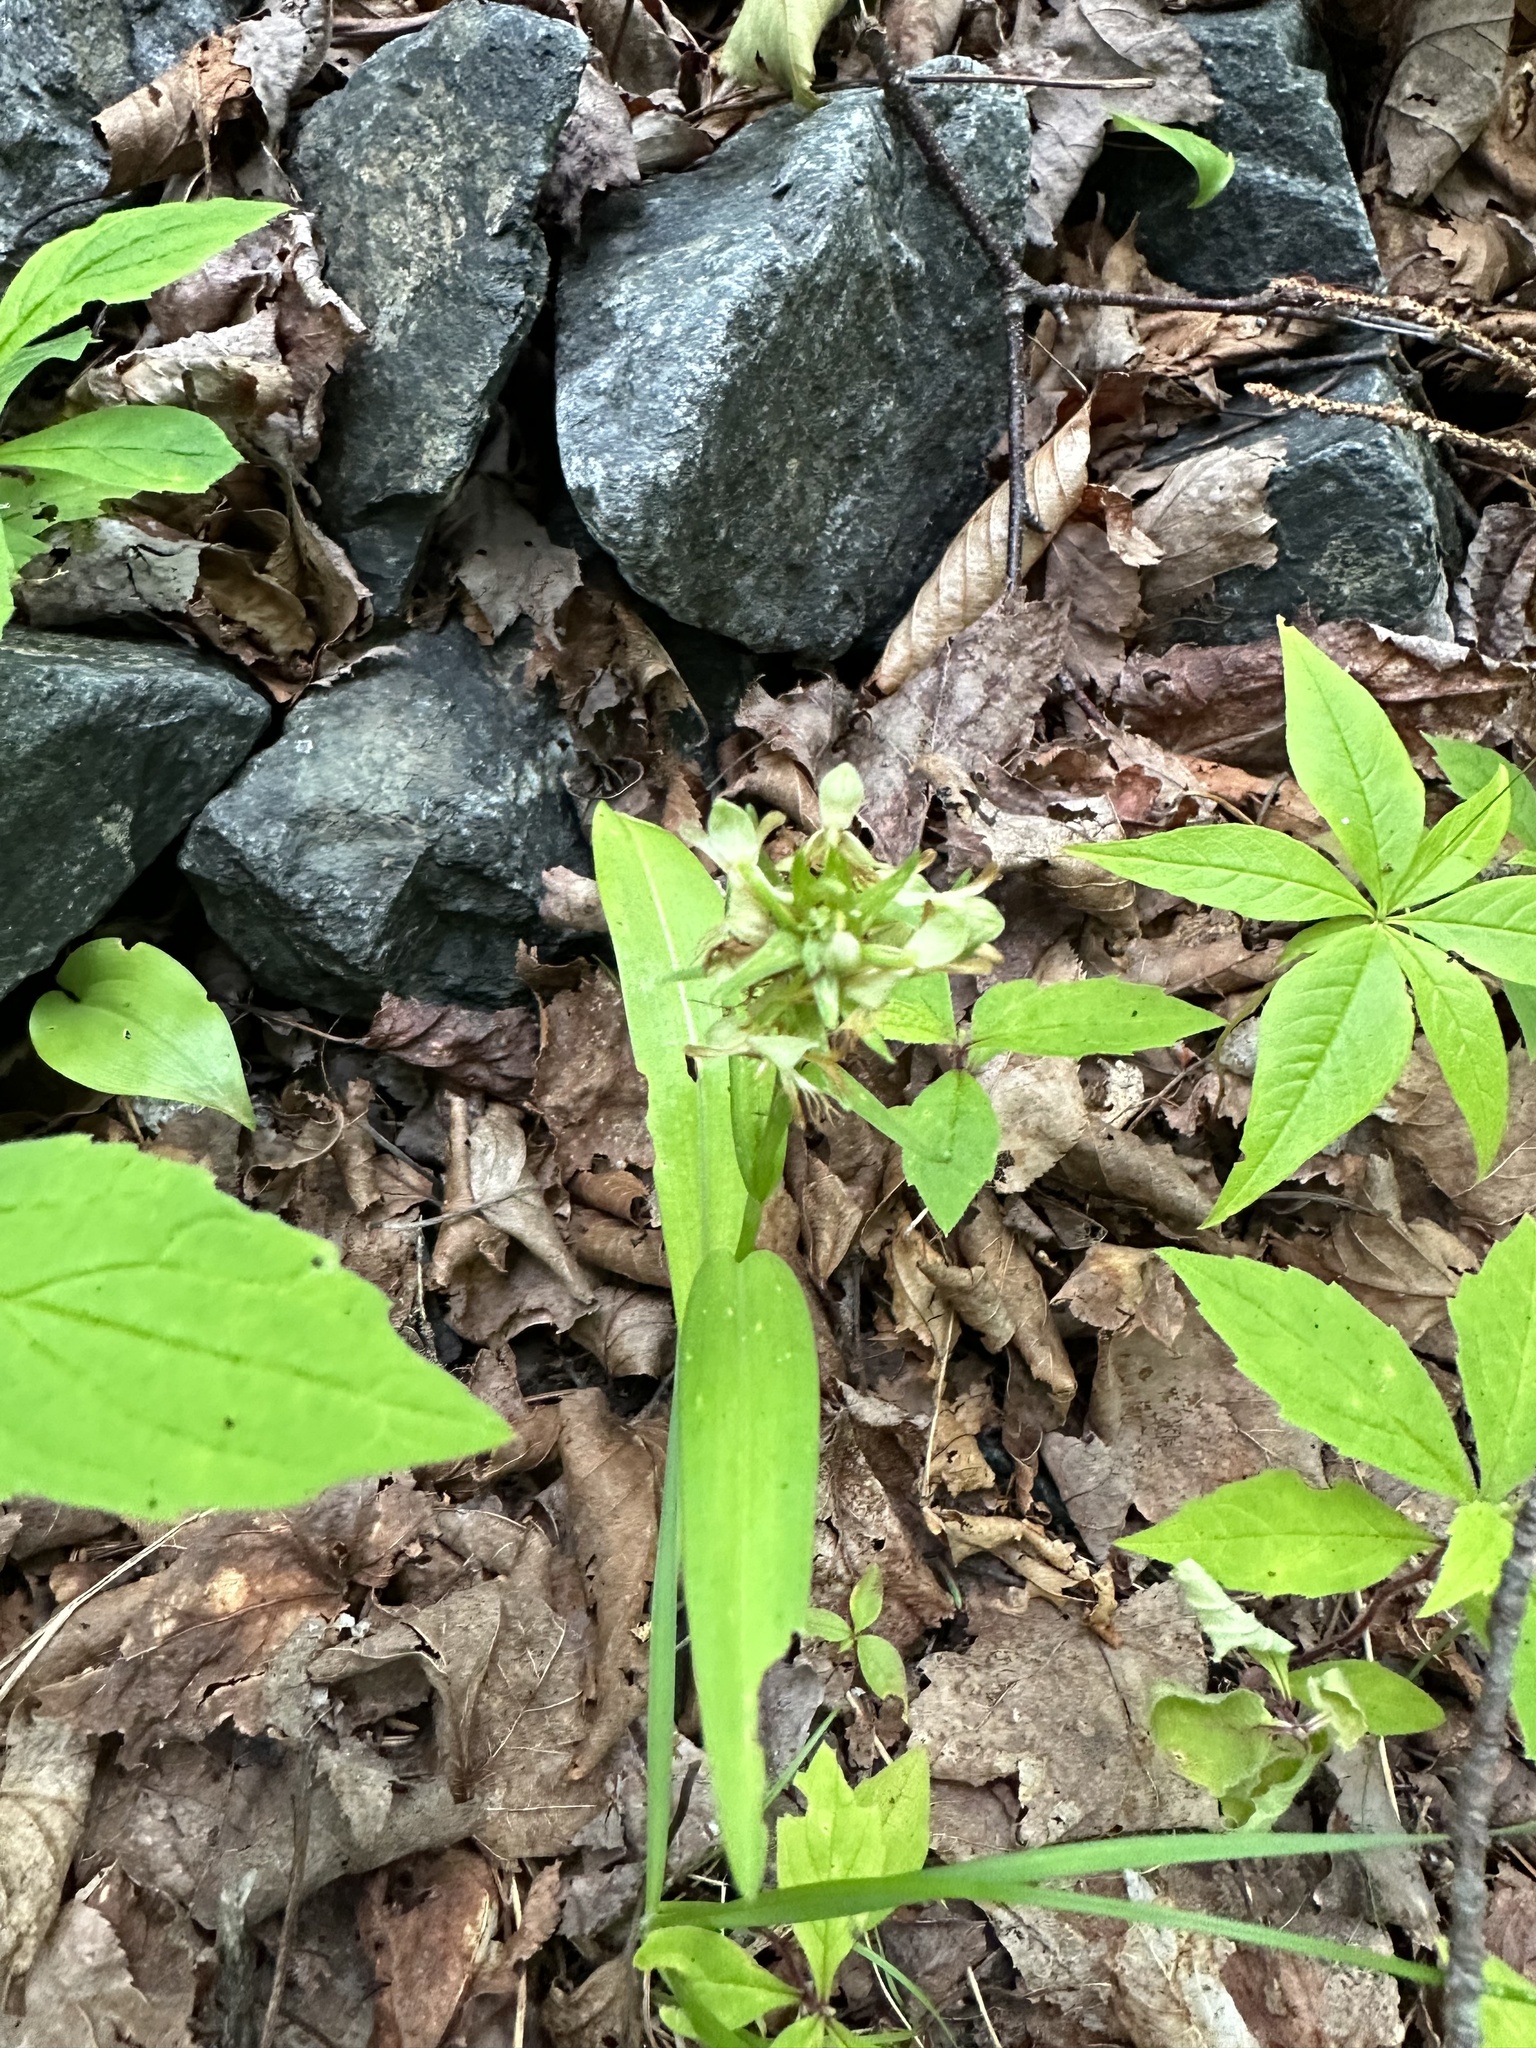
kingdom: Plantae
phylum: Tracheophyta
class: Liliopsida
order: Asparagales
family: Orchidaceae
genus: Platanthera
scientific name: Platanthera clavellata
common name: Club-spur orchid
